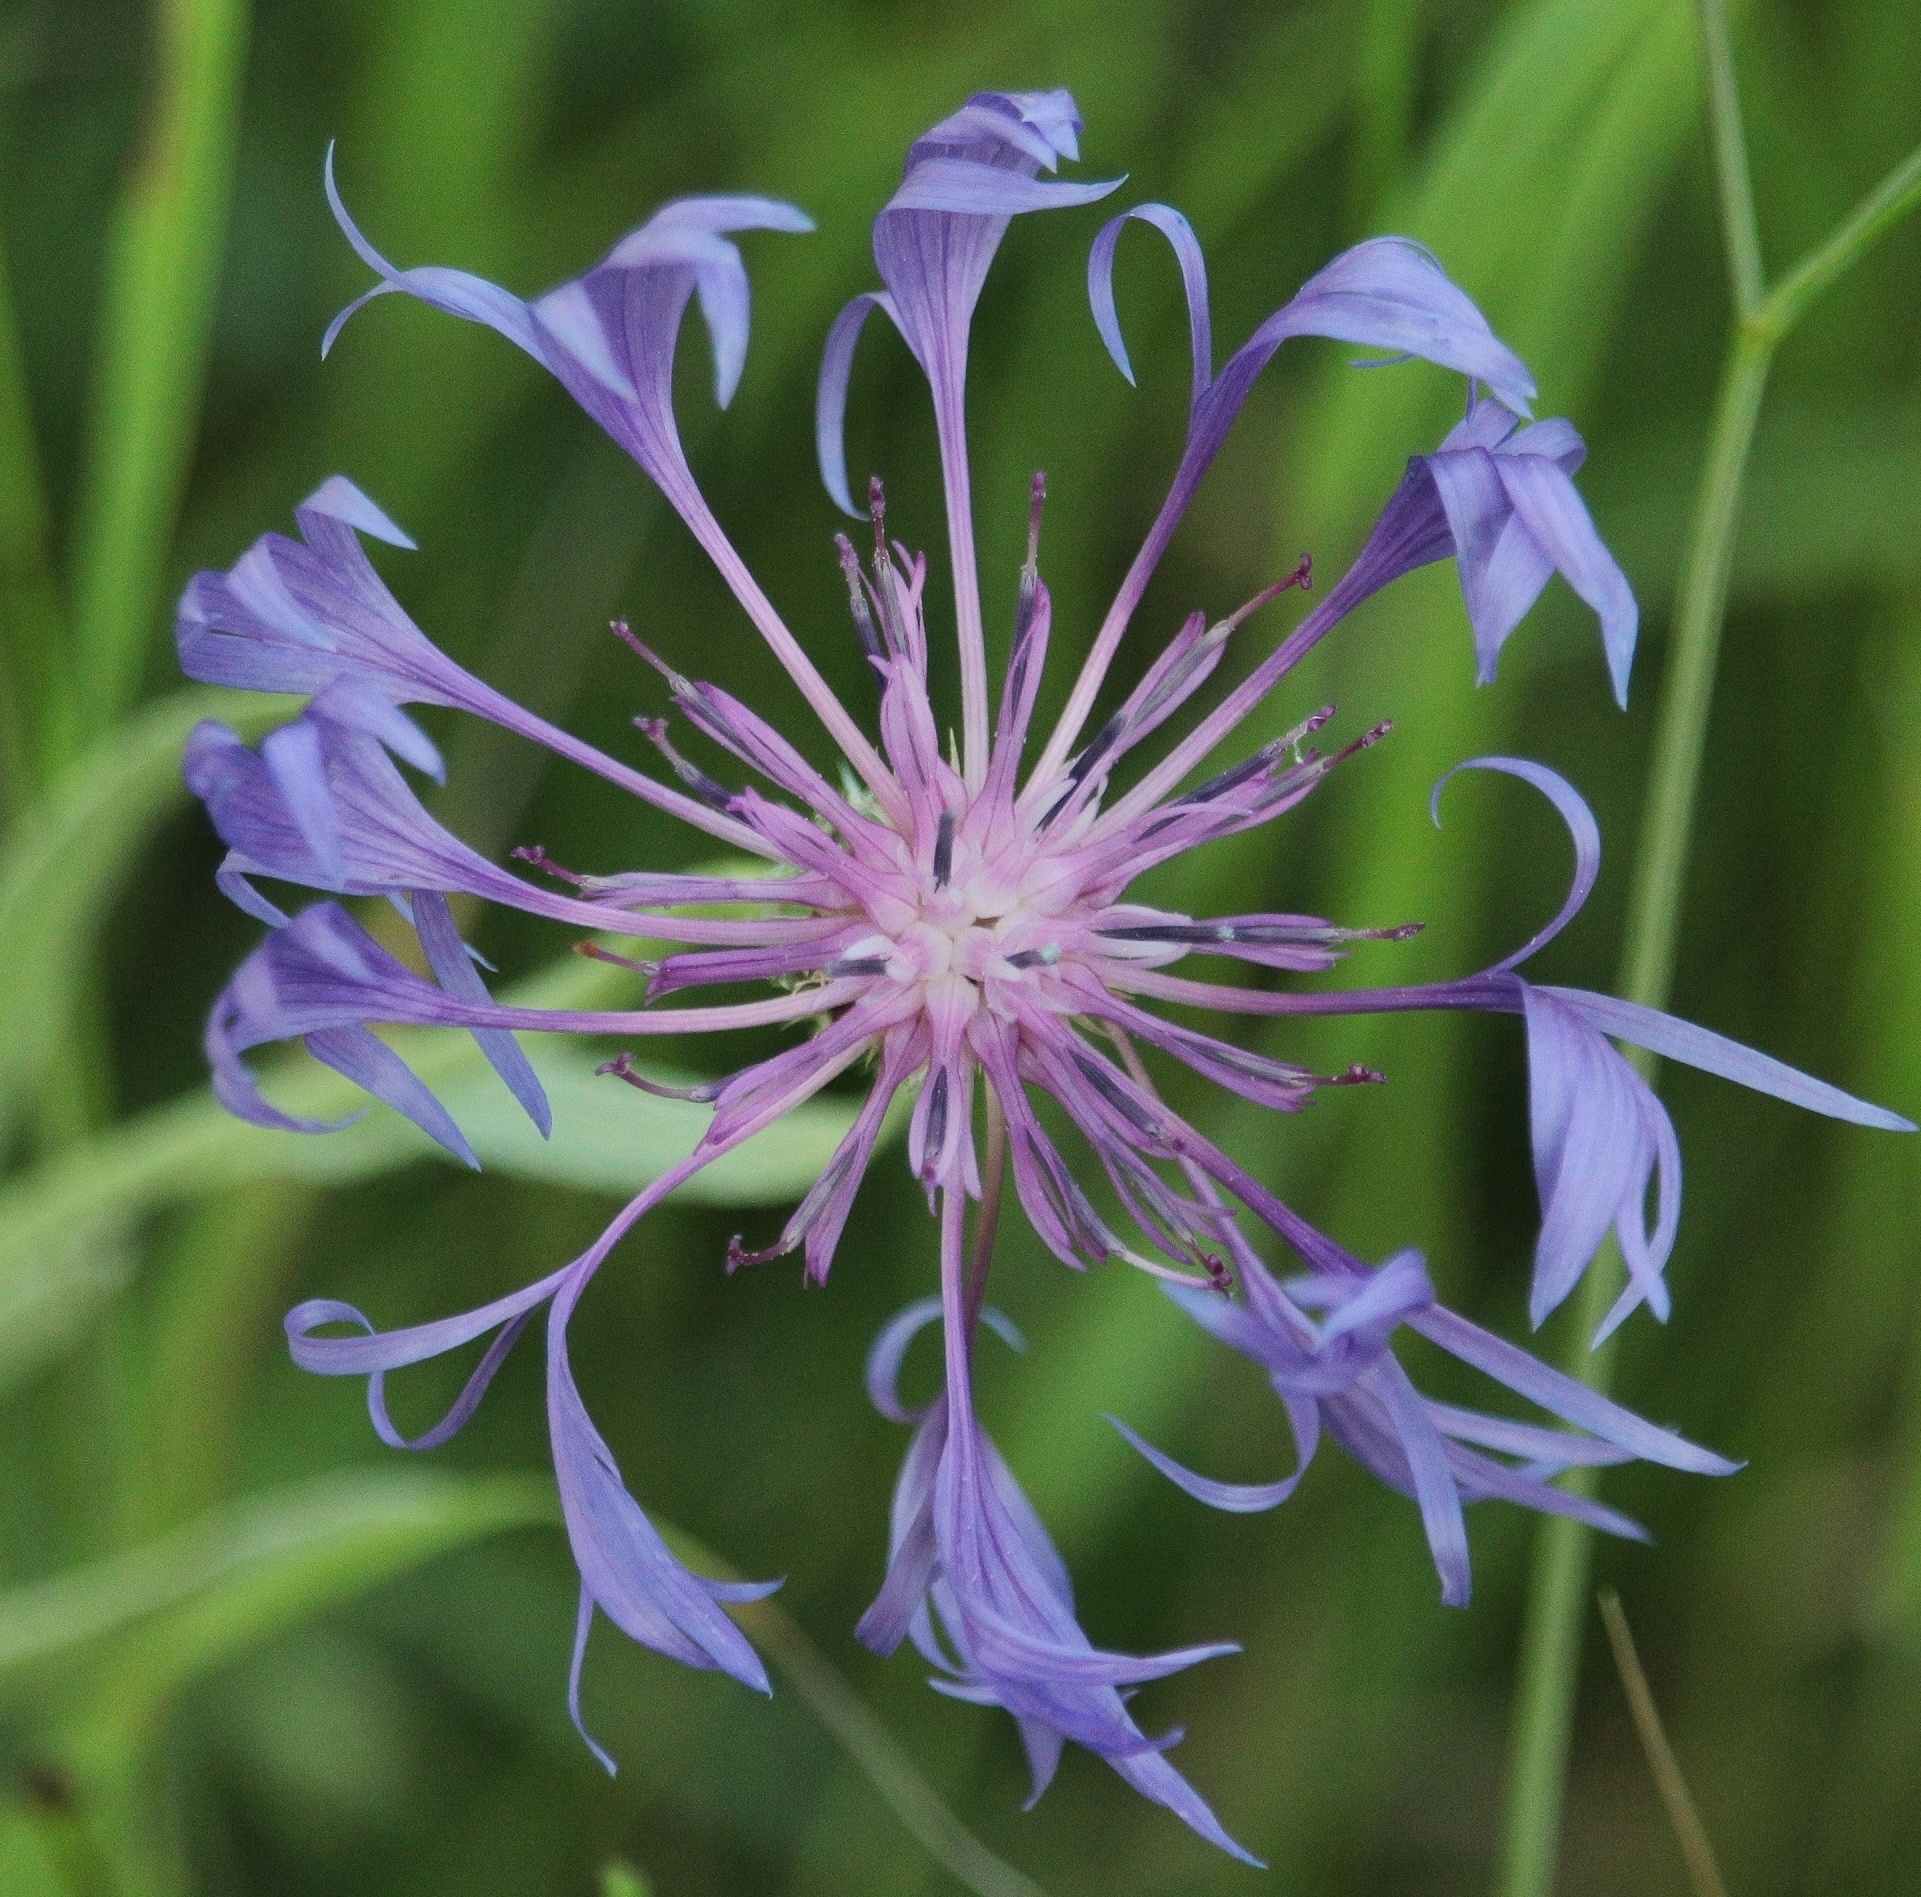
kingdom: Plantae
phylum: Tracheophyta
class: Magnoliopsida
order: Asterales
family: Asteraceae
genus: Centaurea
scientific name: Centaurea fuscomarginata
